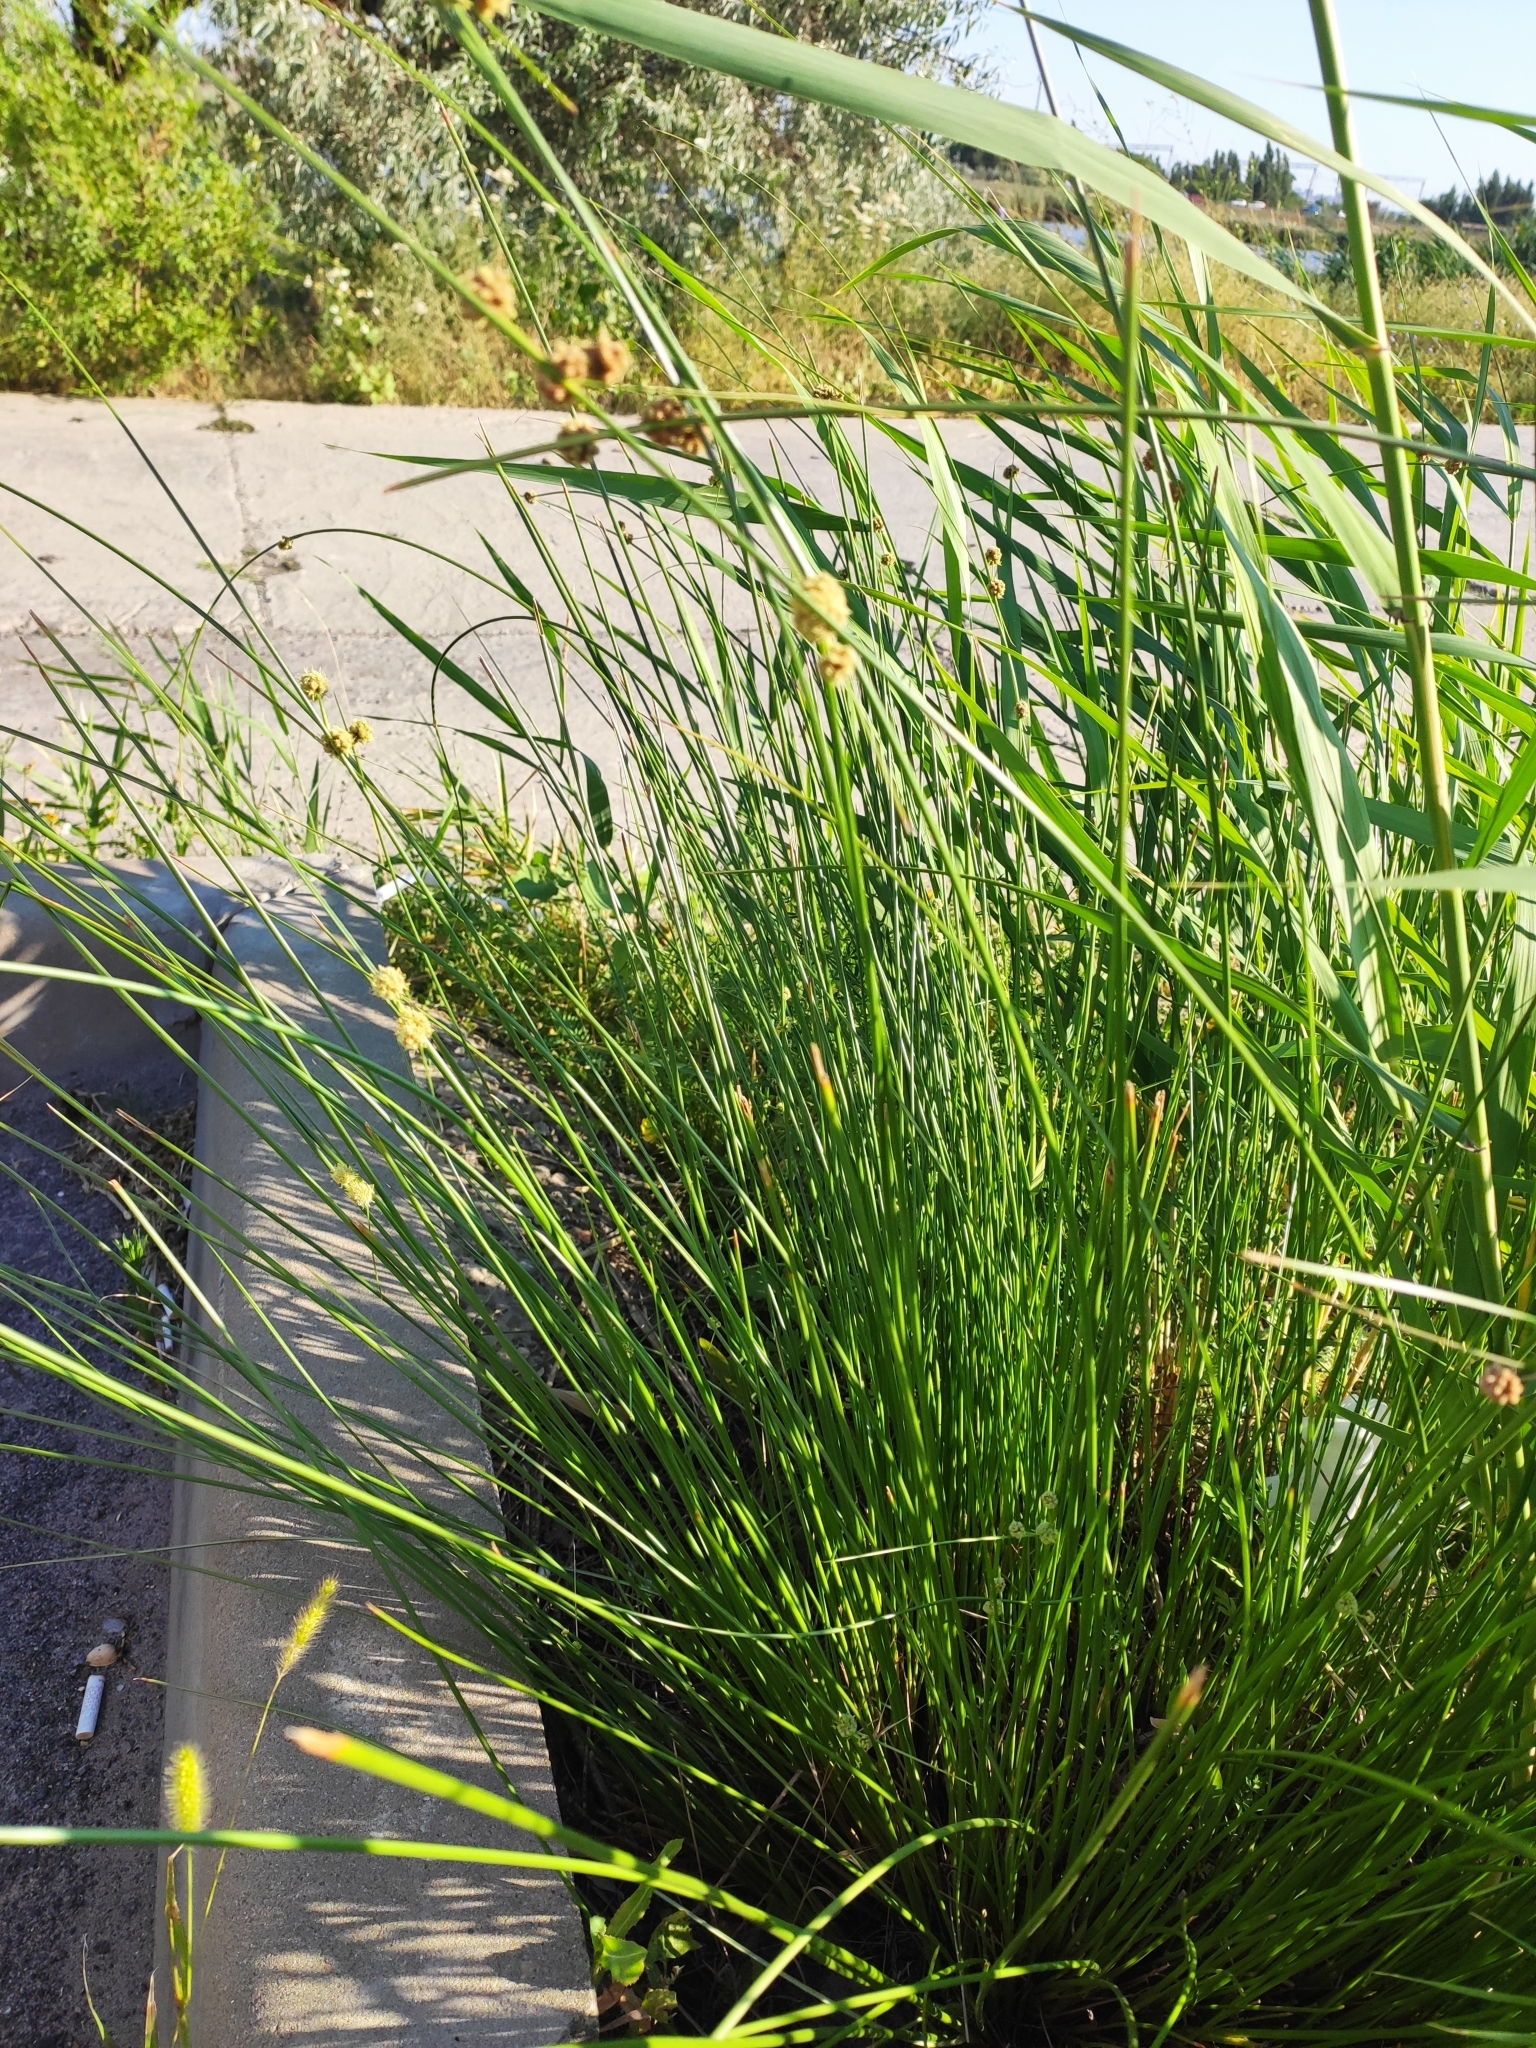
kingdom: Plantae
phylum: Tracheophyta
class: Liliopsida
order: Poales
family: Cyperaceae
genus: Scirpoides
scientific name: Scirpoides holoschoenus
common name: Round-headed club-rush
